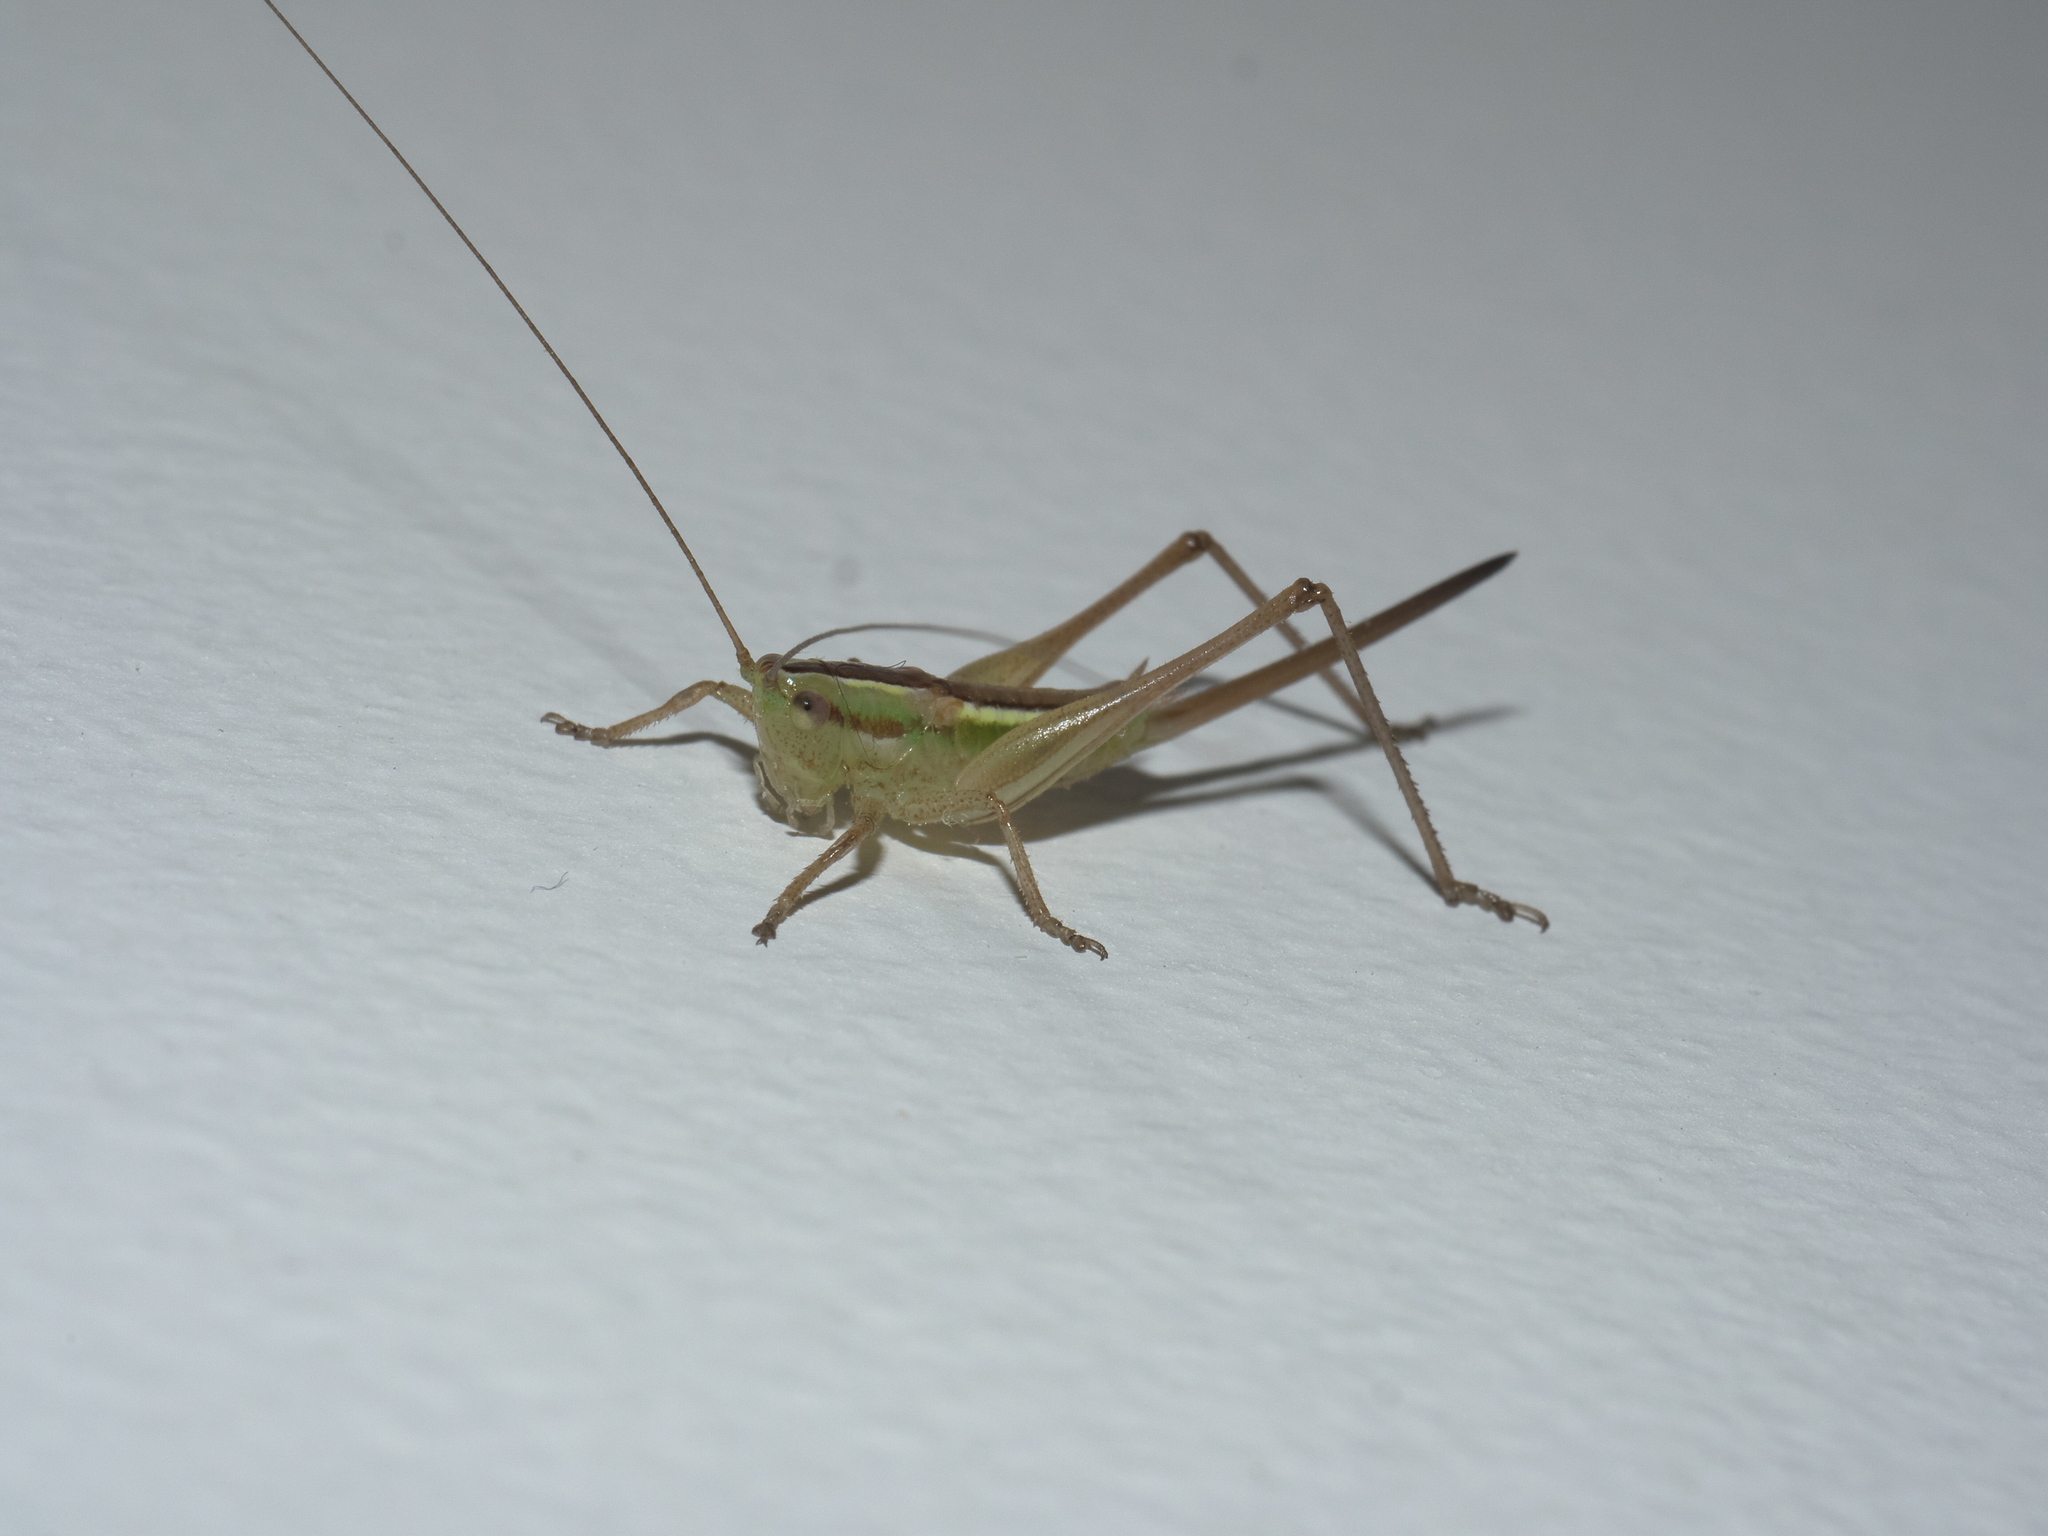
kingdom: Animalia
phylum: Arthropoda
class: Insecta
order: Orthoptera
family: Tettigoniidae
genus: Conocephalus
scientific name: Conocephalus bilineatus
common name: Small meadow katydid
